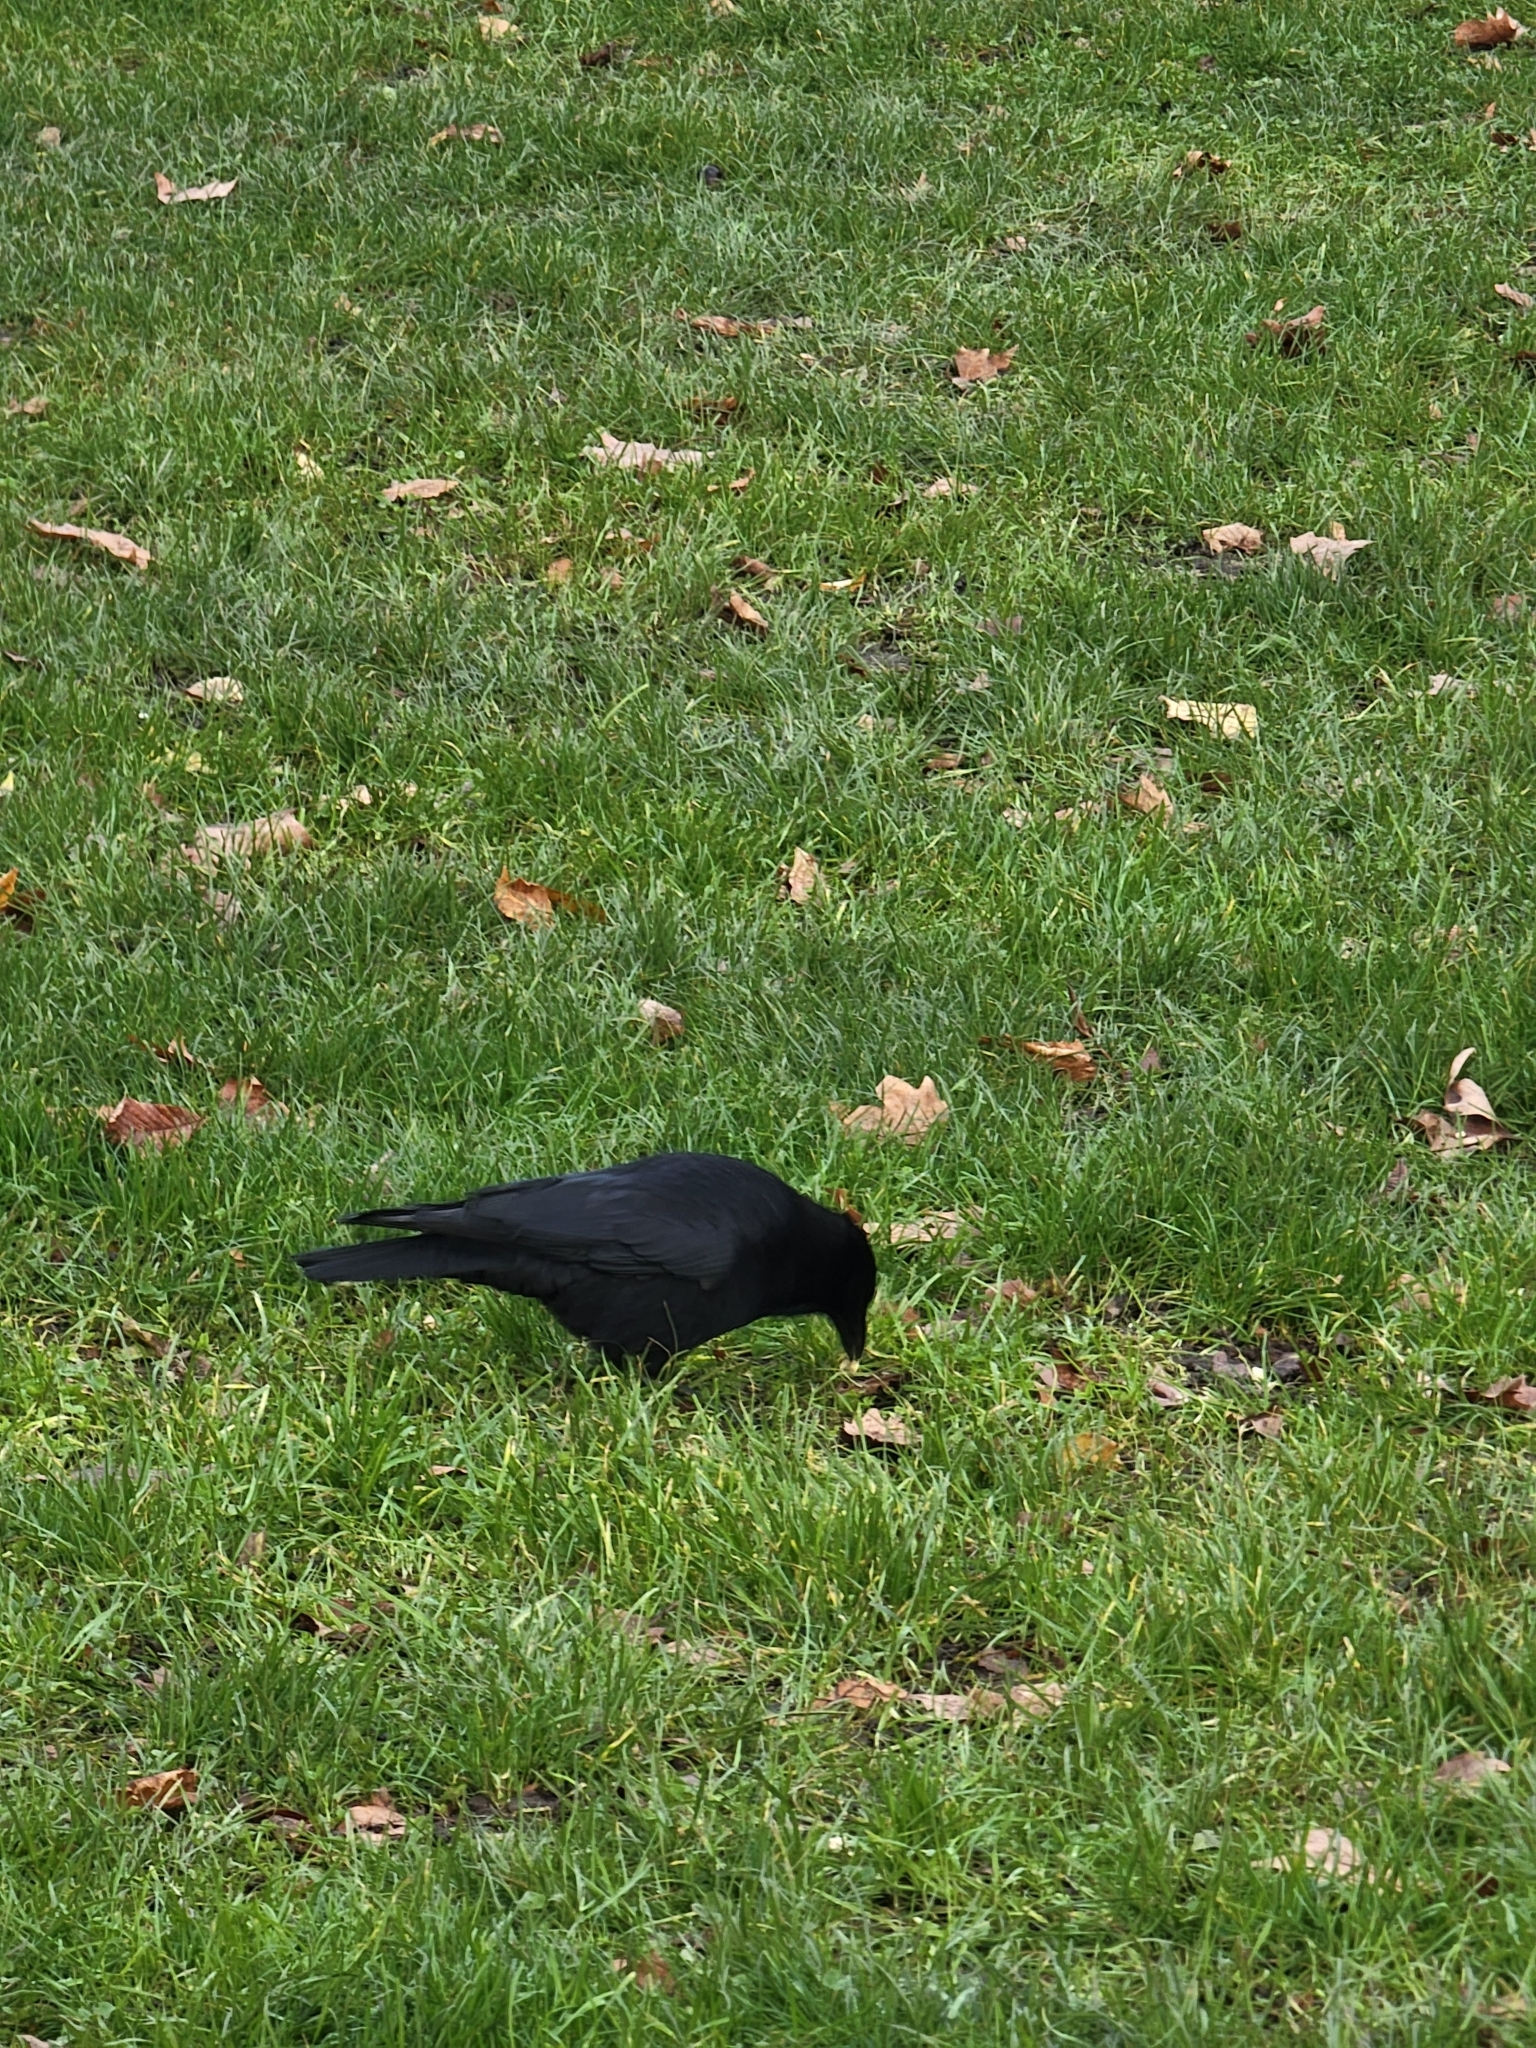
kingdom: Animalia
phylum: Chordata
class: Aves
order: Passeriformes
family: Corvidae
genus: Corvus
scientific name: Corvus corone
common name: Carrion crow
